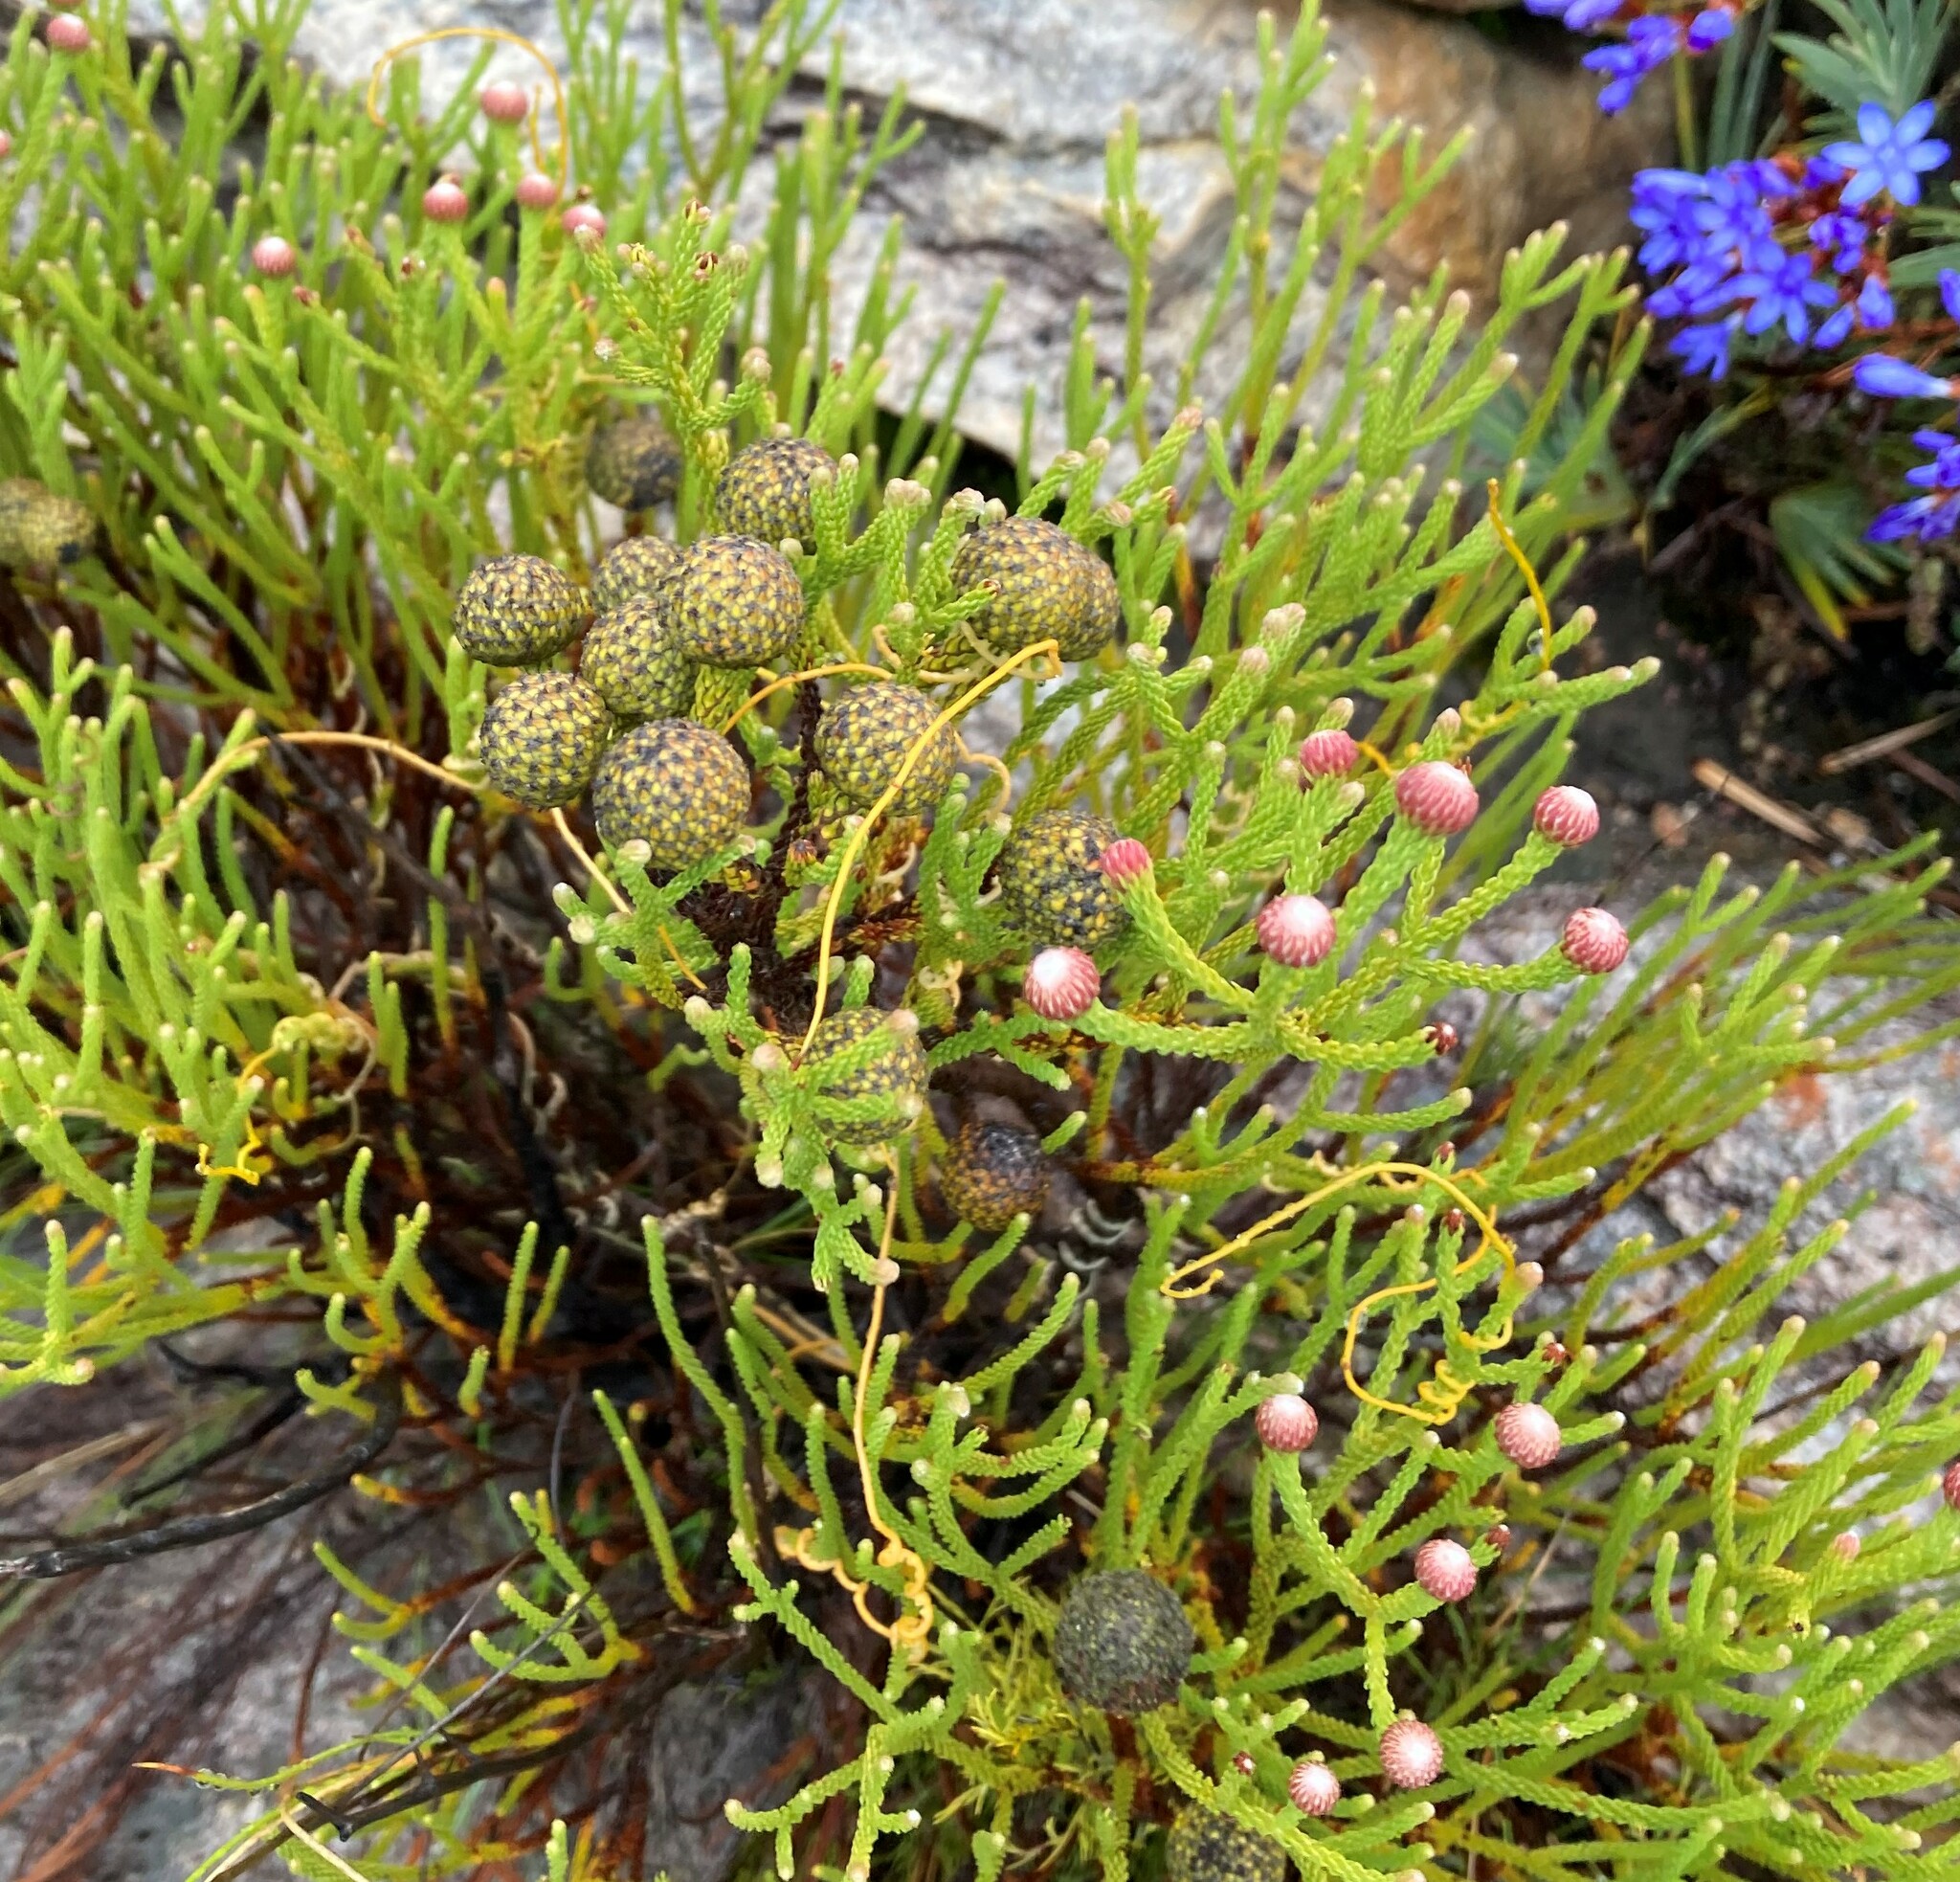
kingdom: Plantae
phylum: Tracheophyta
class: Magnoliopsida
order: Bruniales
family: Bruniaceae
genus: Brunia
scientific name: Brunia noduliflora
